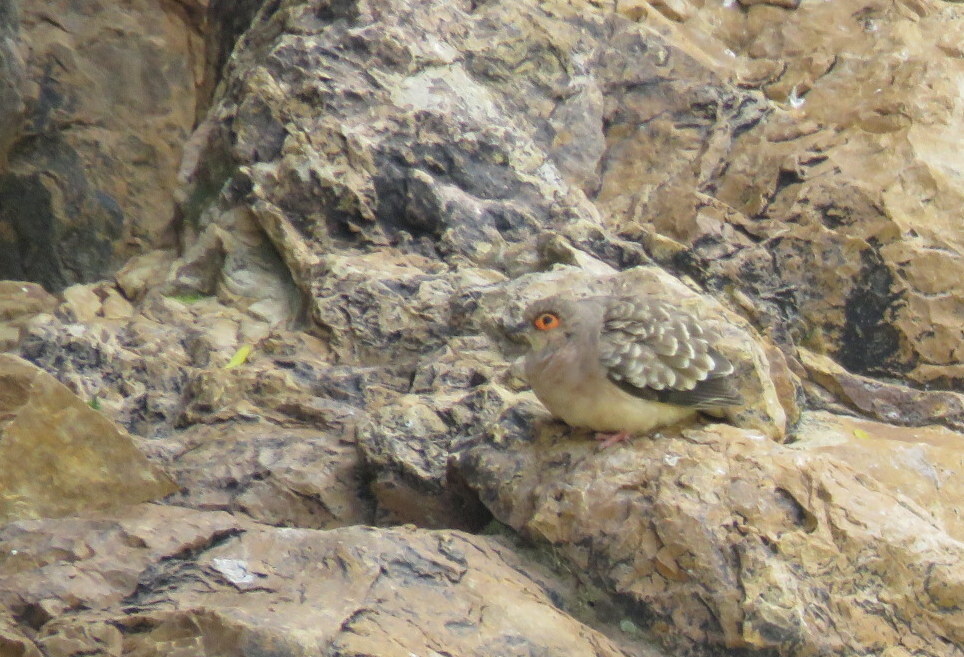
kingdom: Animalia
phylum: Chordata
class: Aves
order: Columbiformes
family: Columbidae
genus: Metriopelia
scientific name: Metriopelia ceciliae
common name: Bare-faced ground dove
